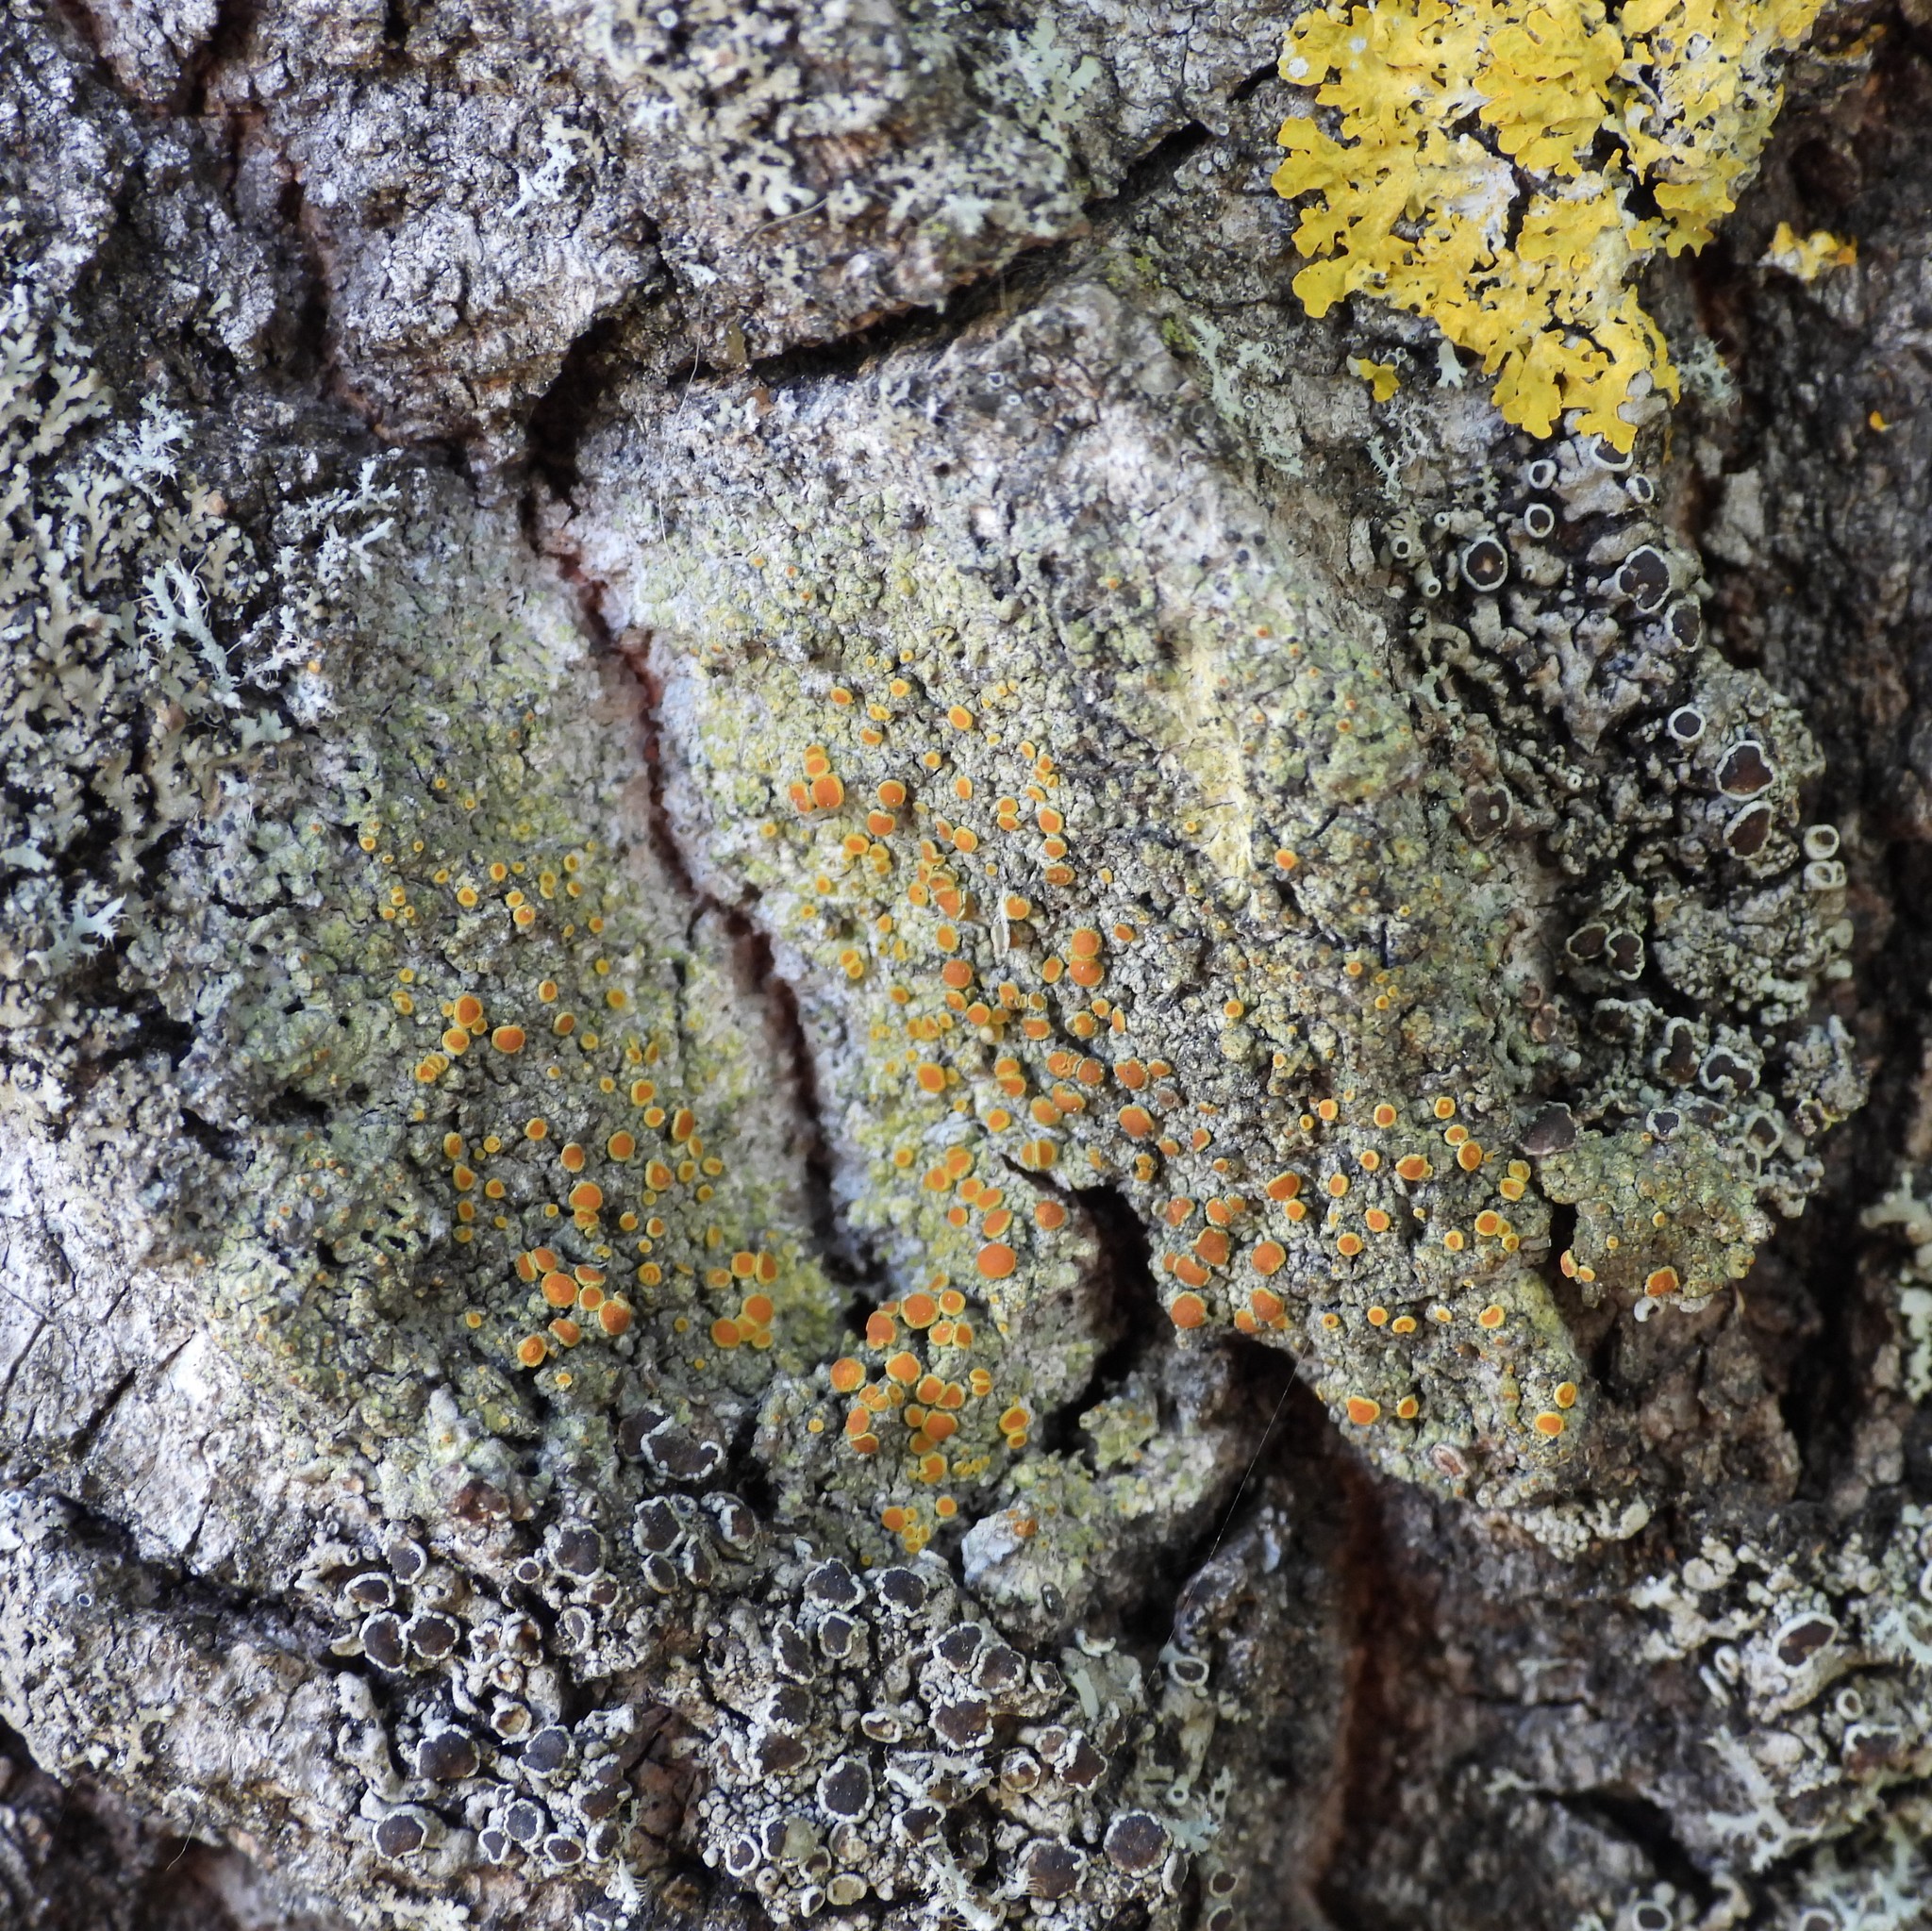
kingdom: Fungi
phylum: Ascomycota
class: Lecanoromycetes
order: Teloschistales
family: Teloschistaceae
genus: Opeltia
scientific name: Opeltia flavorubescens
